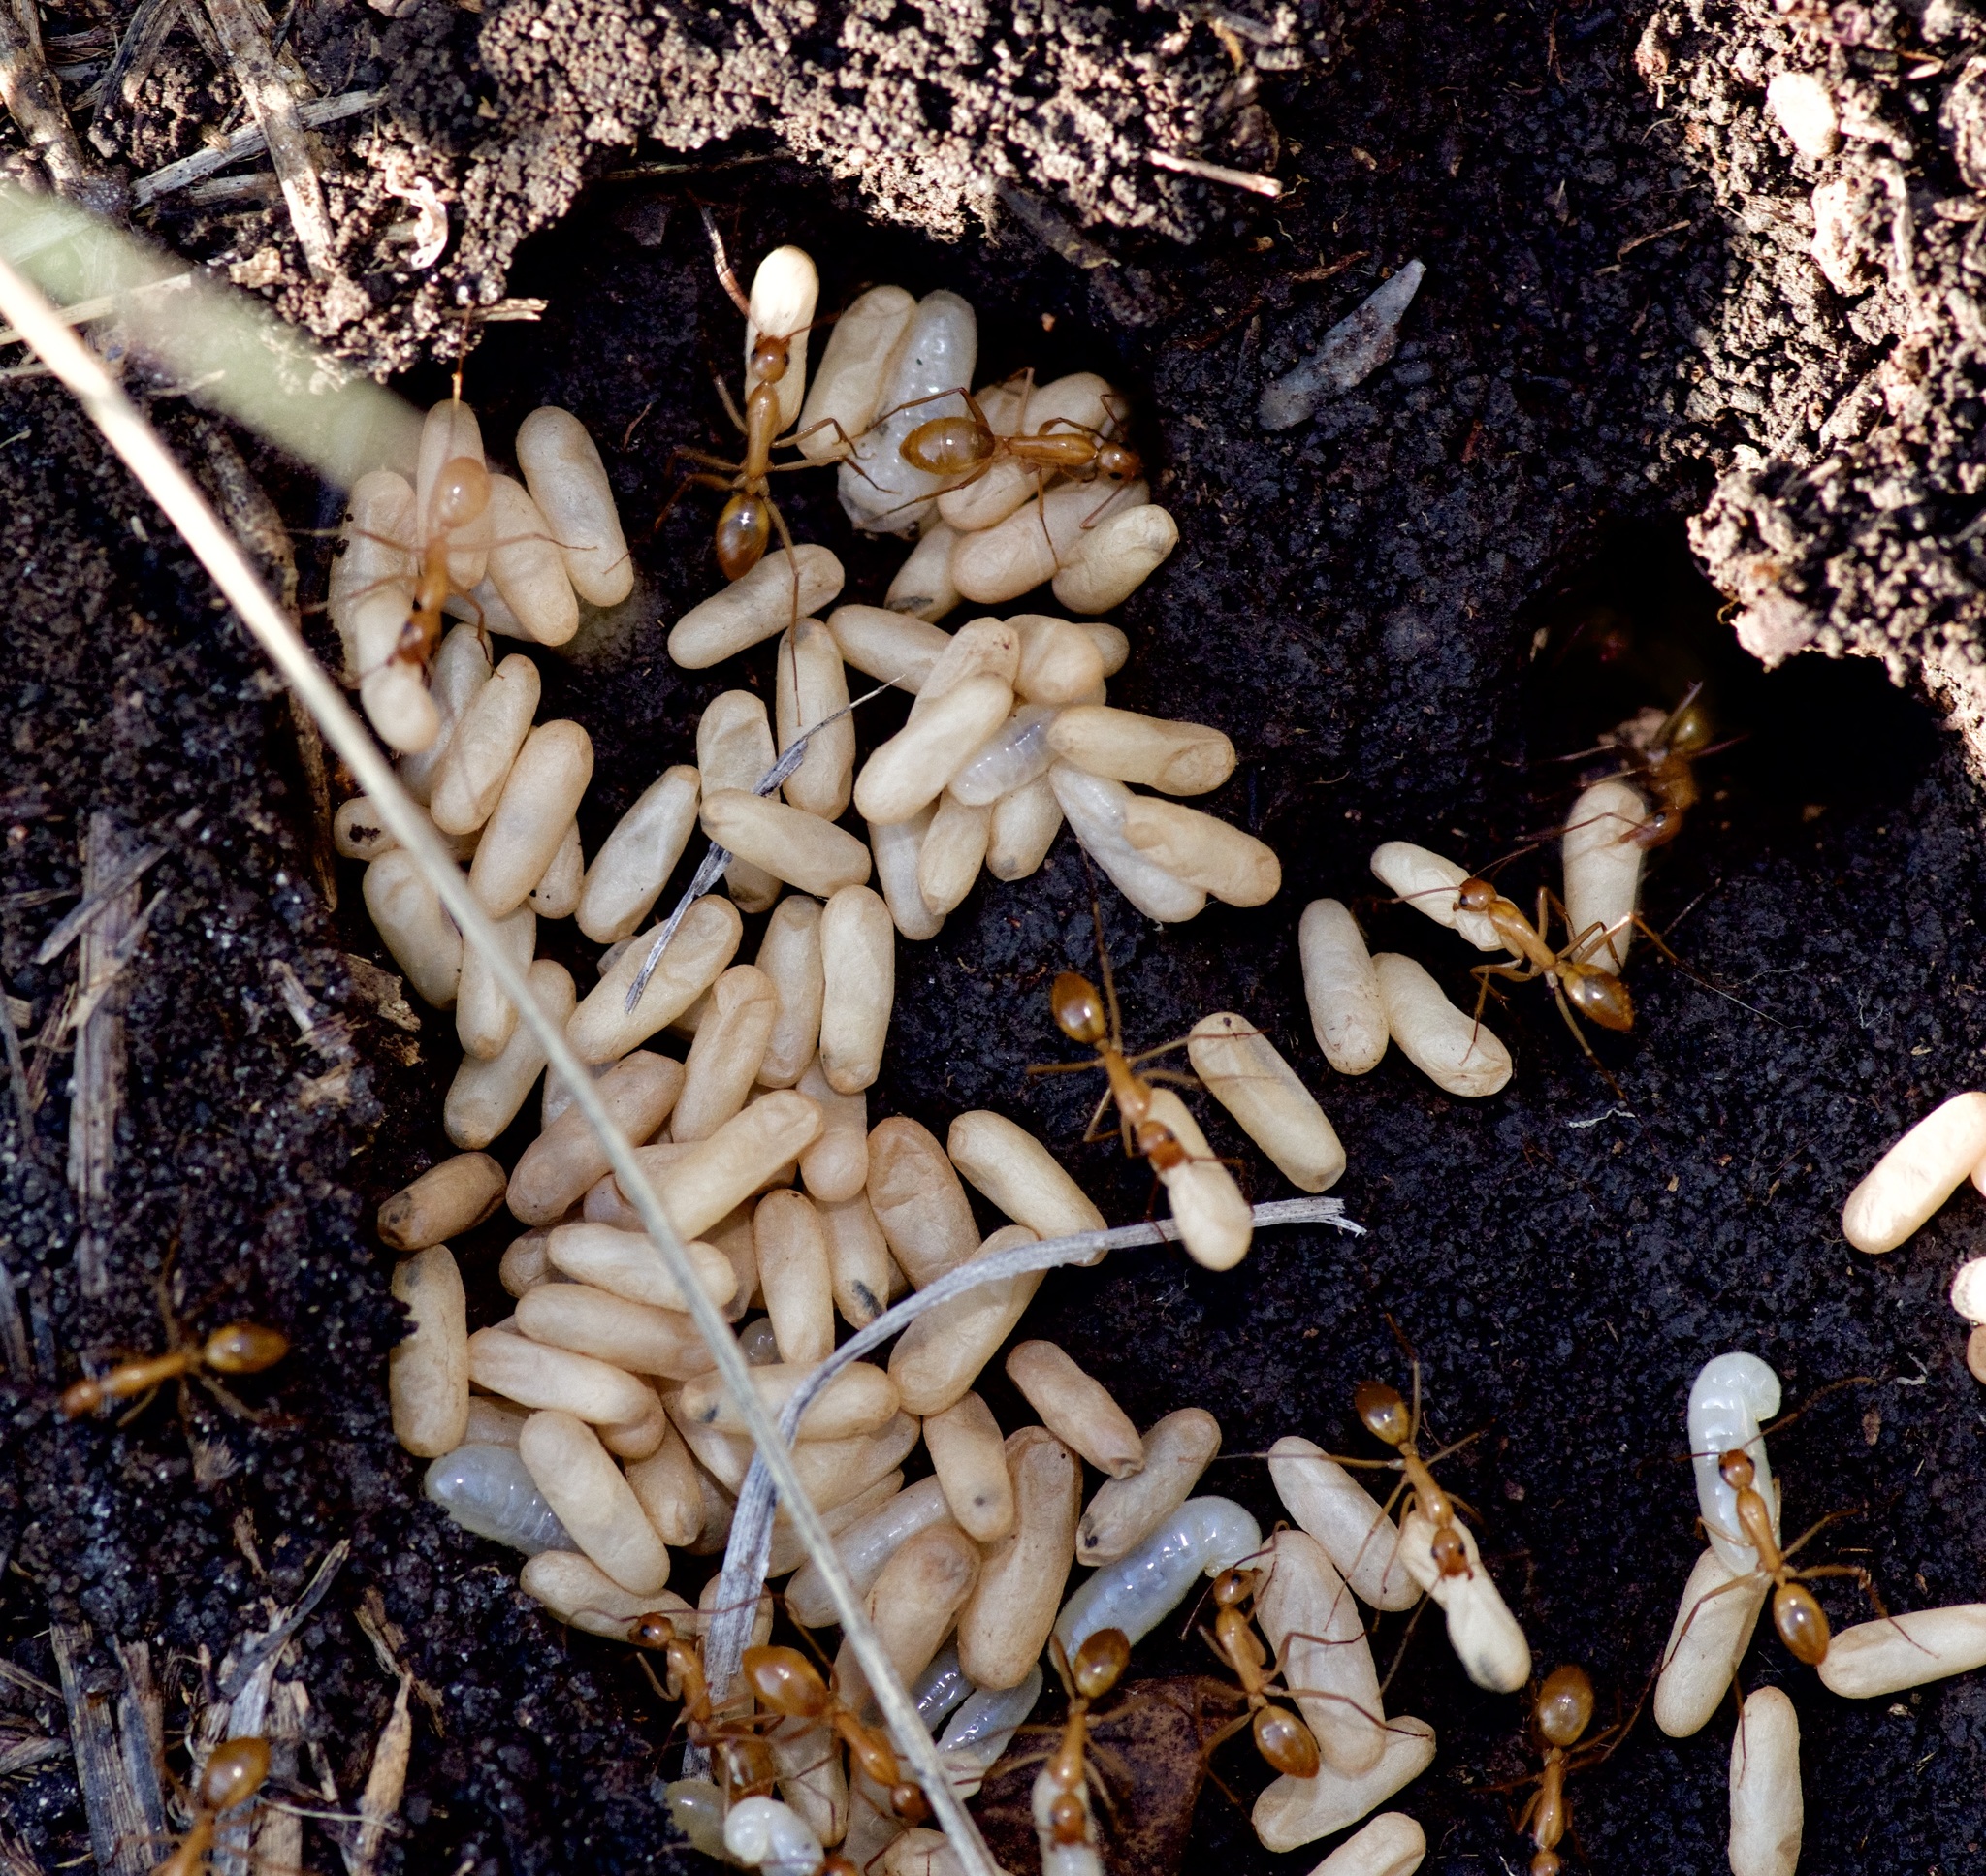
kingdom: Animalia
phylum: Arthropoda
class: Insecta
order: Hymenoptera
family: Formicidae
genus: Camponotus
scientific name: Camponotus festinatus
